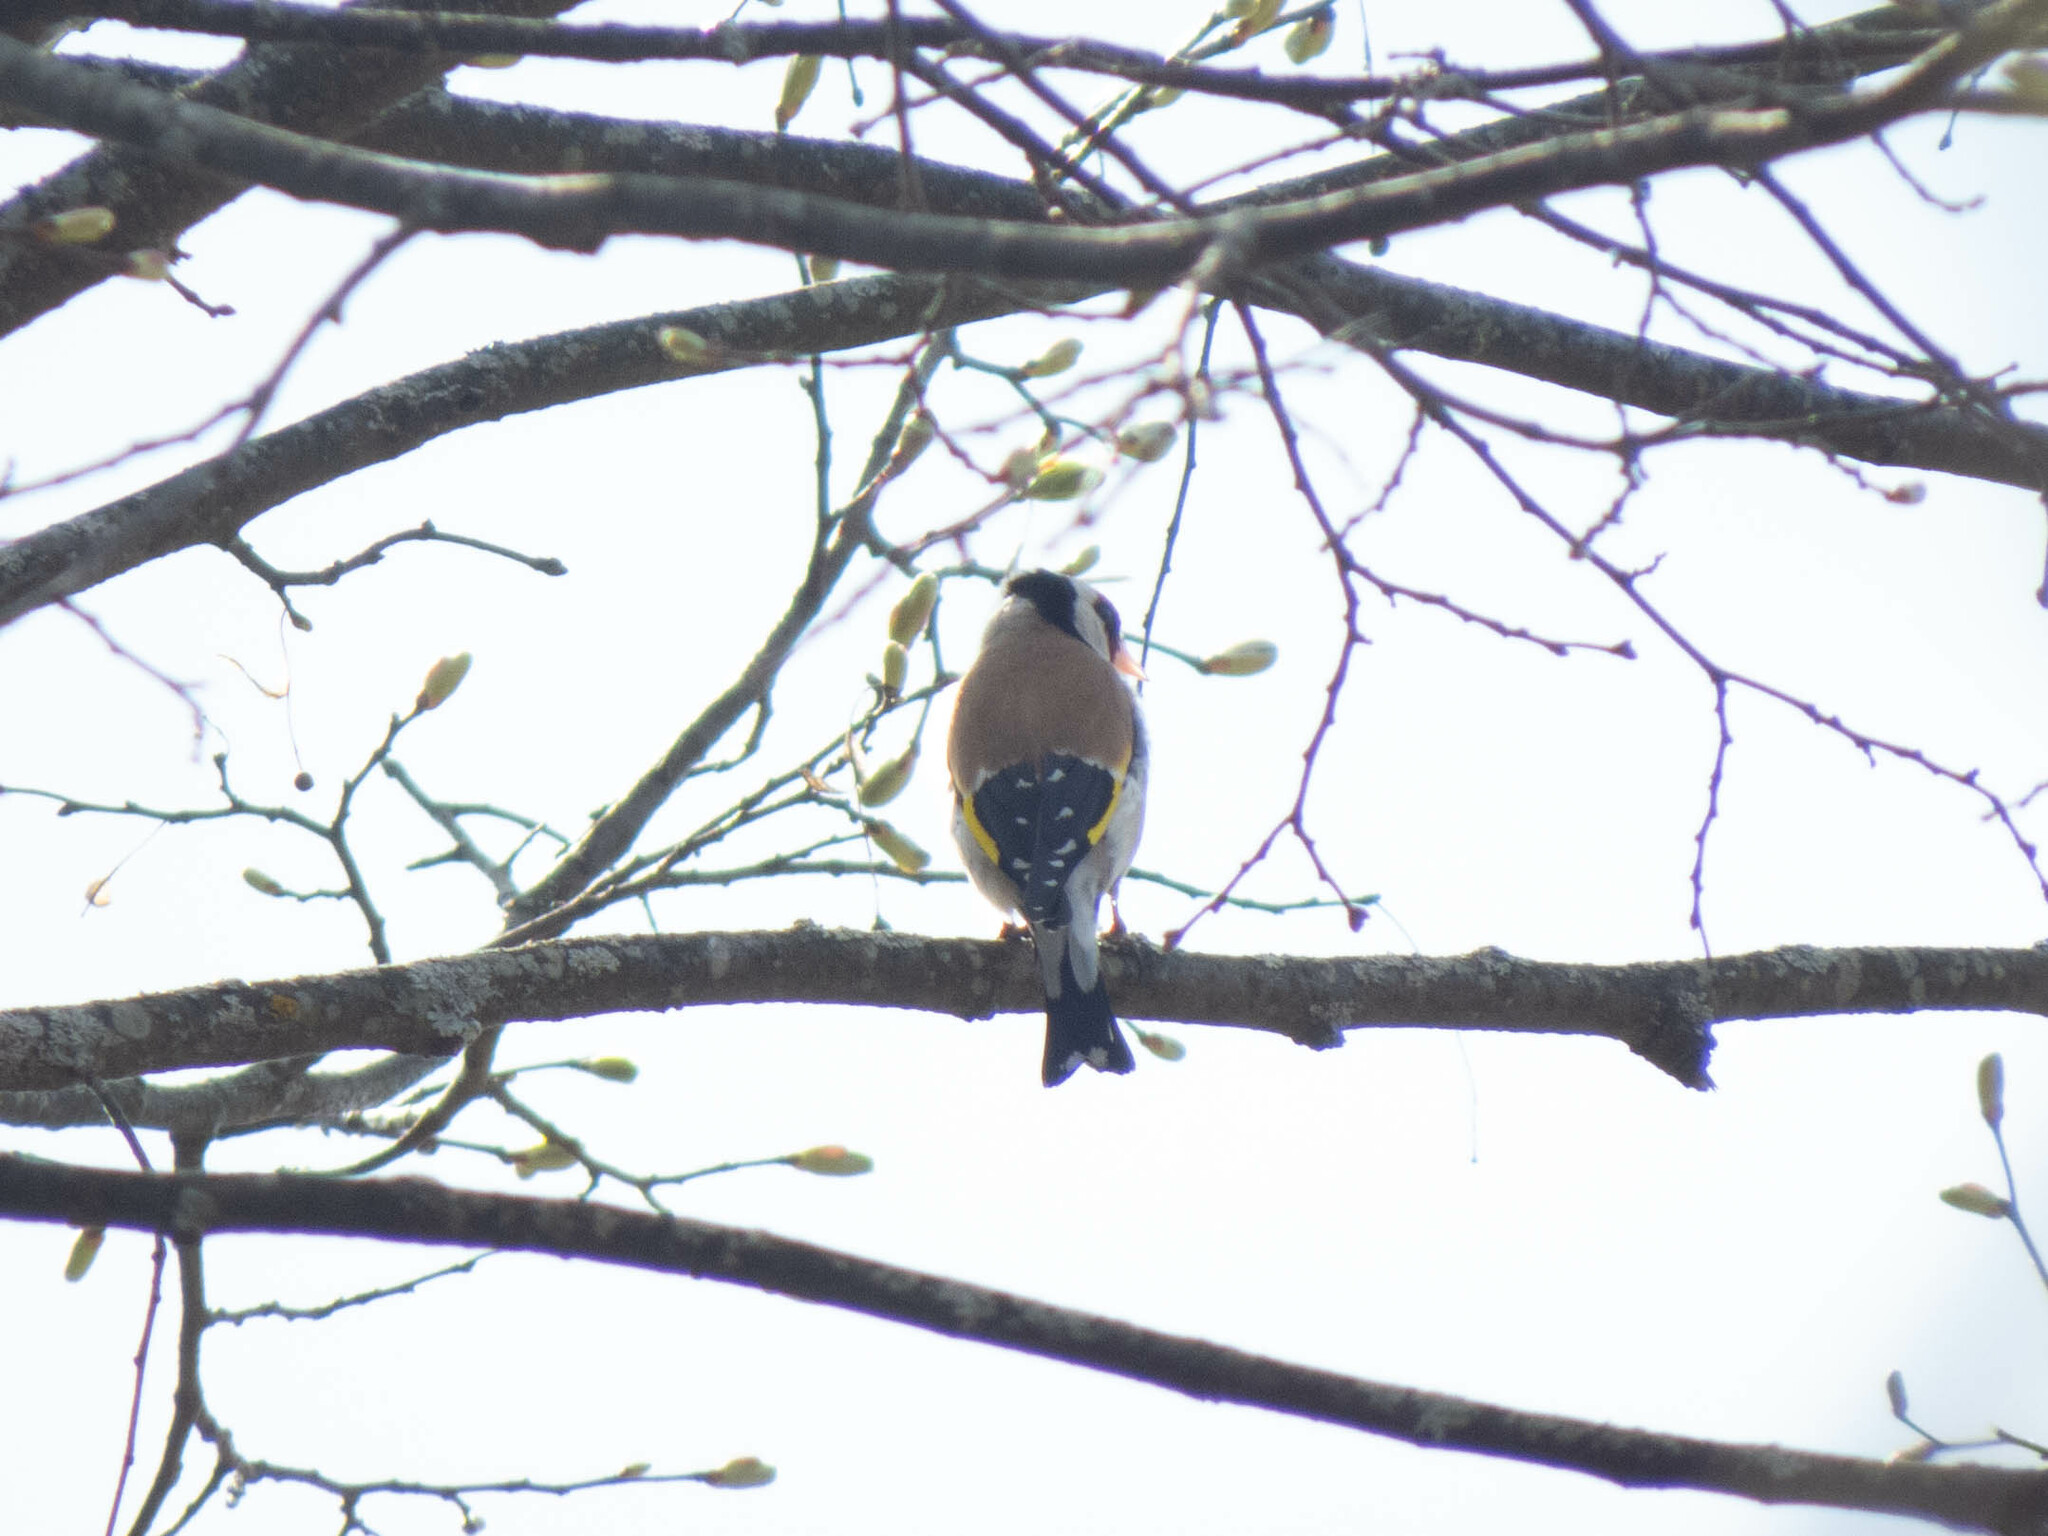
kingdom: Animalia
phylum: Chordata
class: Aves
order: Passeriformes
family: Fringillidae
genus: Carduelis
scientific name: Carduelis carduelis
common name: European goldfinch
